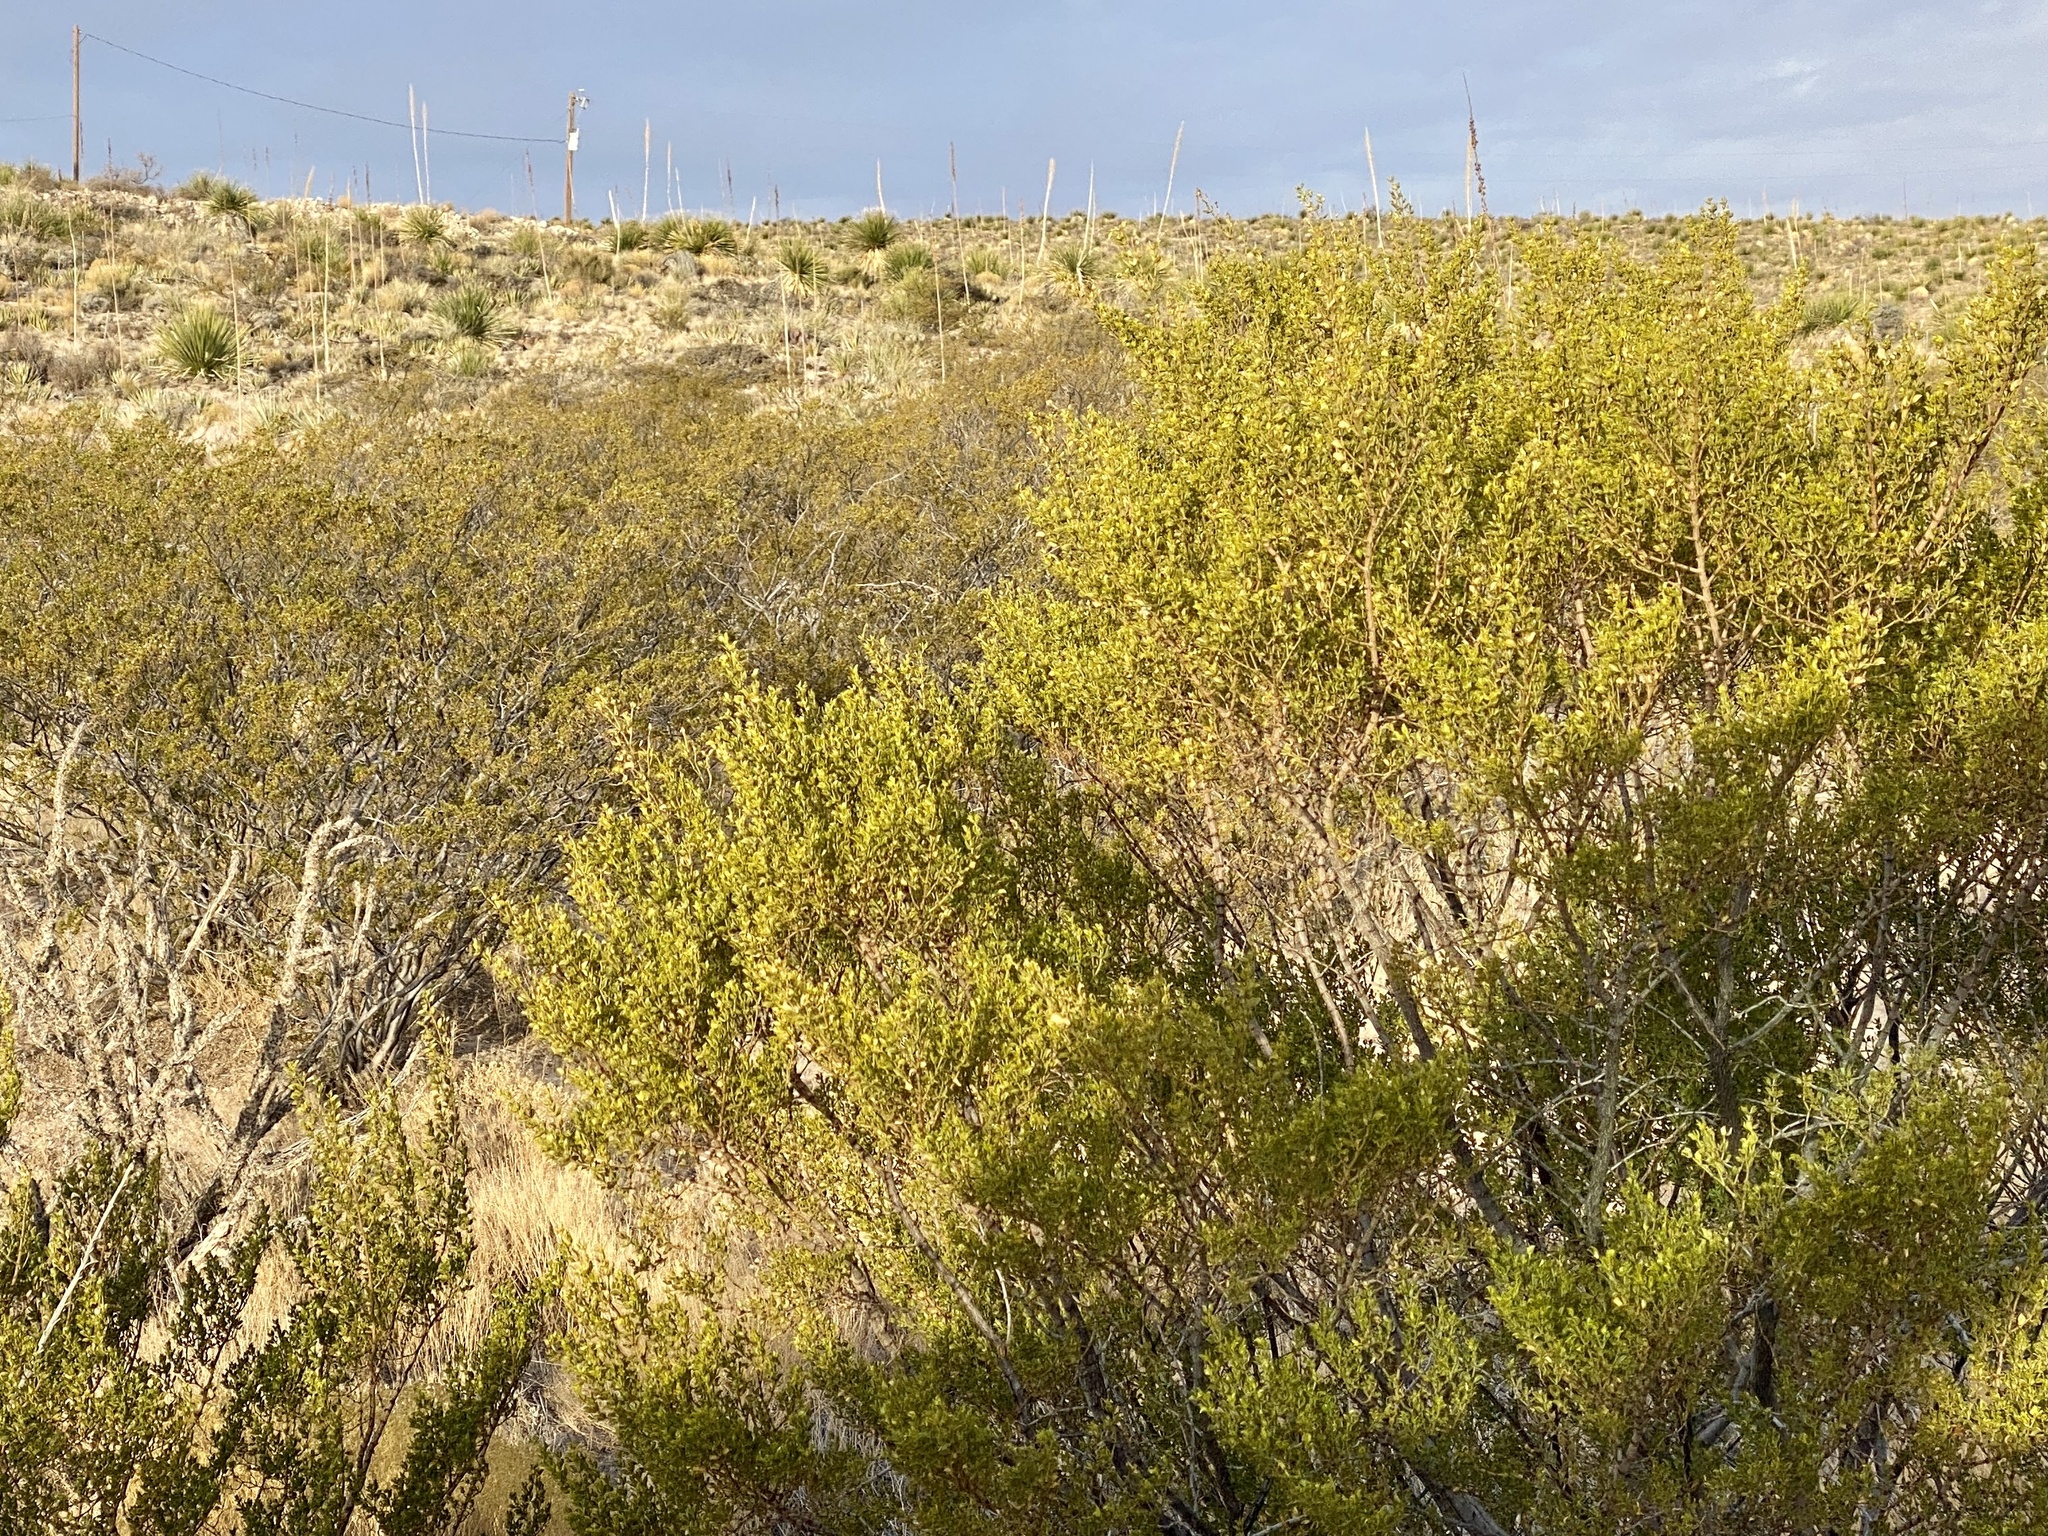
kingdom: Plantae
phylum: Tracheophyta
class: Magnoliopsida
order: Zygophyllales
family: Zygophyllaceae
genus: Larrea
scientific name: Larrea tridentata
